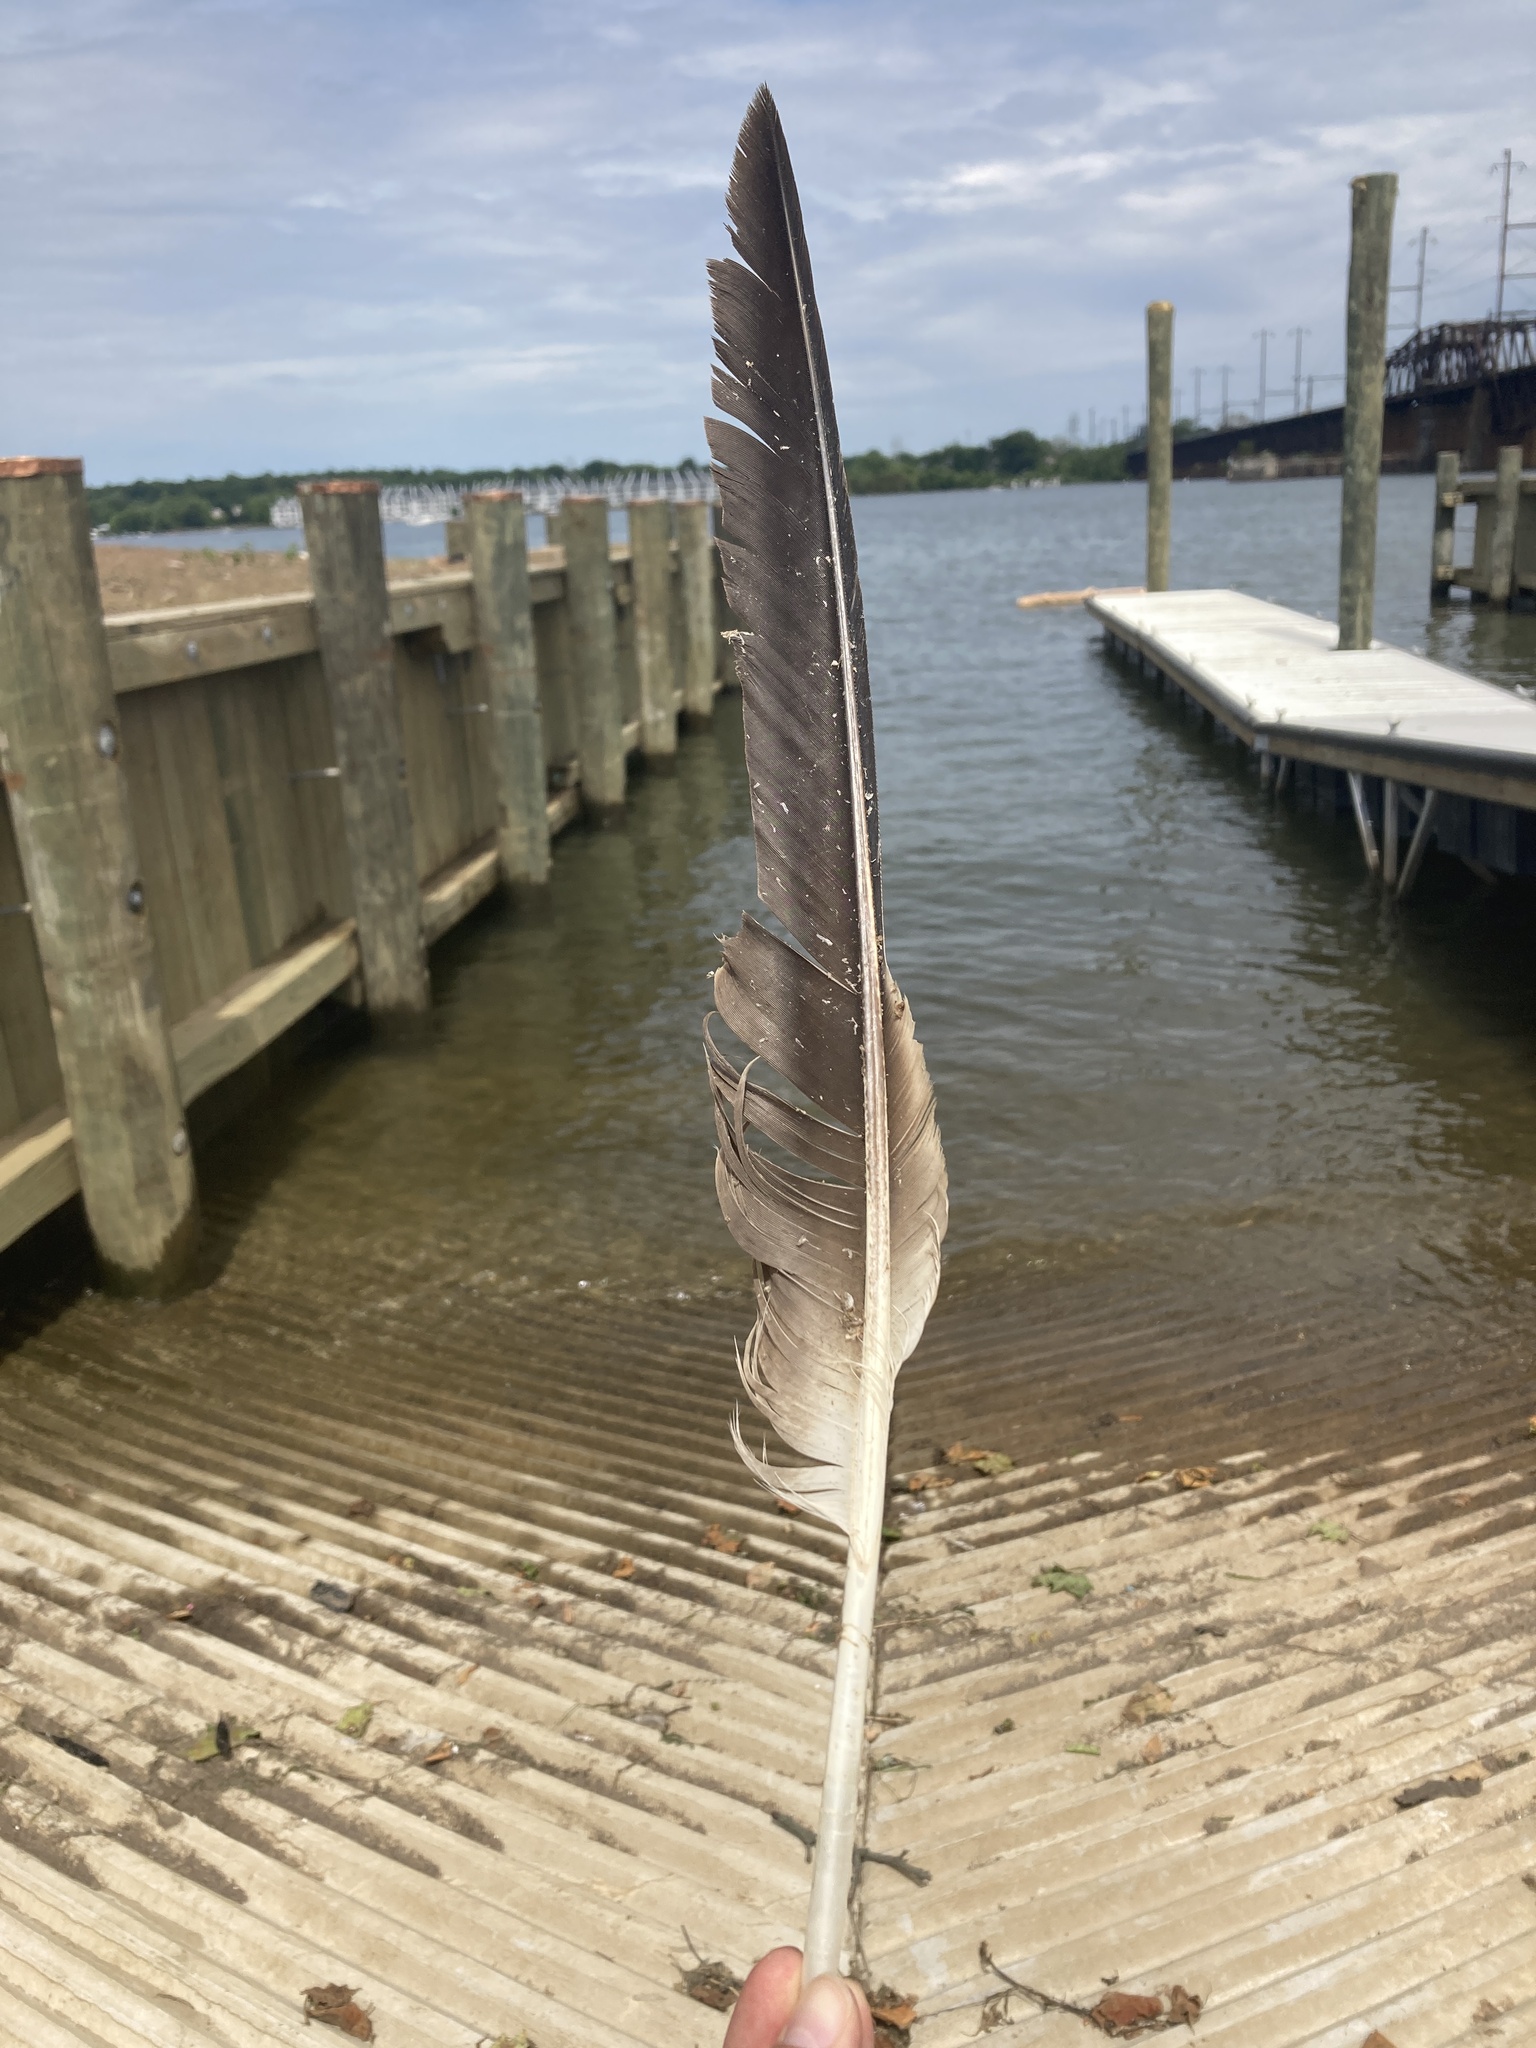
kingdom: Animalia
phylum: Chordata
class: Aves
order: Accipitriformes
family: Accipitridae
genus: Haliaeetus
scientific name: Haliaeetus leucocephalus
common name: Bald eagle
